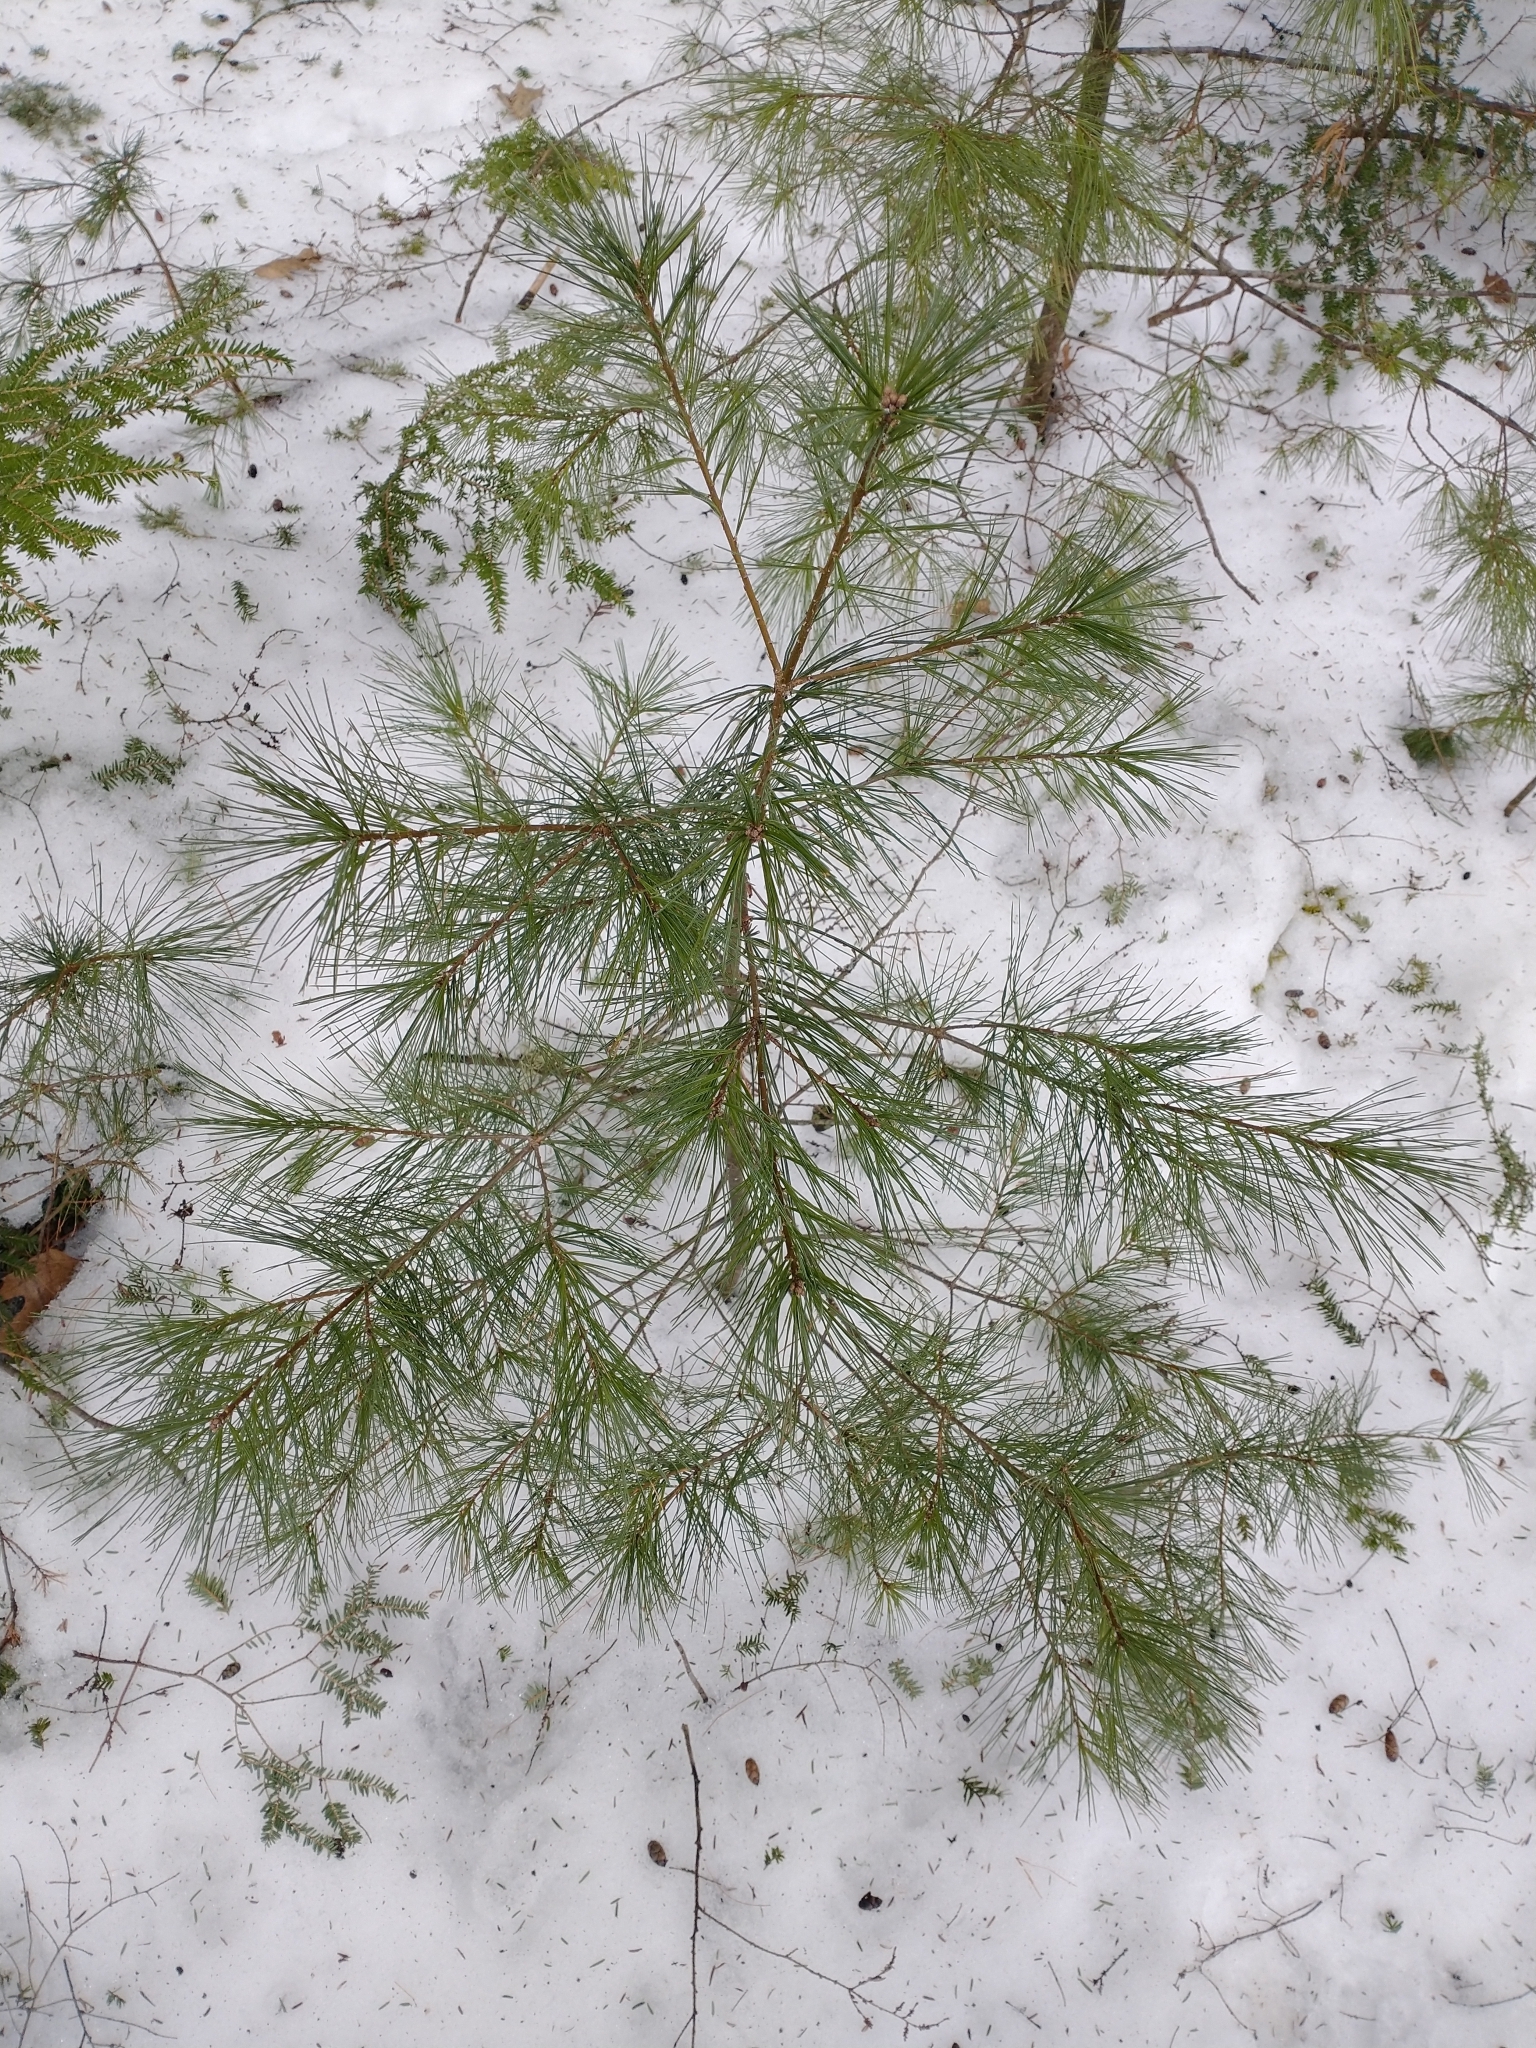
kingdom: Plantae
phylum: Tracheophyta
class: Pinopsida
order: Pinales
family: Pinaceae
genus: Pinus
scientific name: Pinus strobus
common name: Weymouth pine
